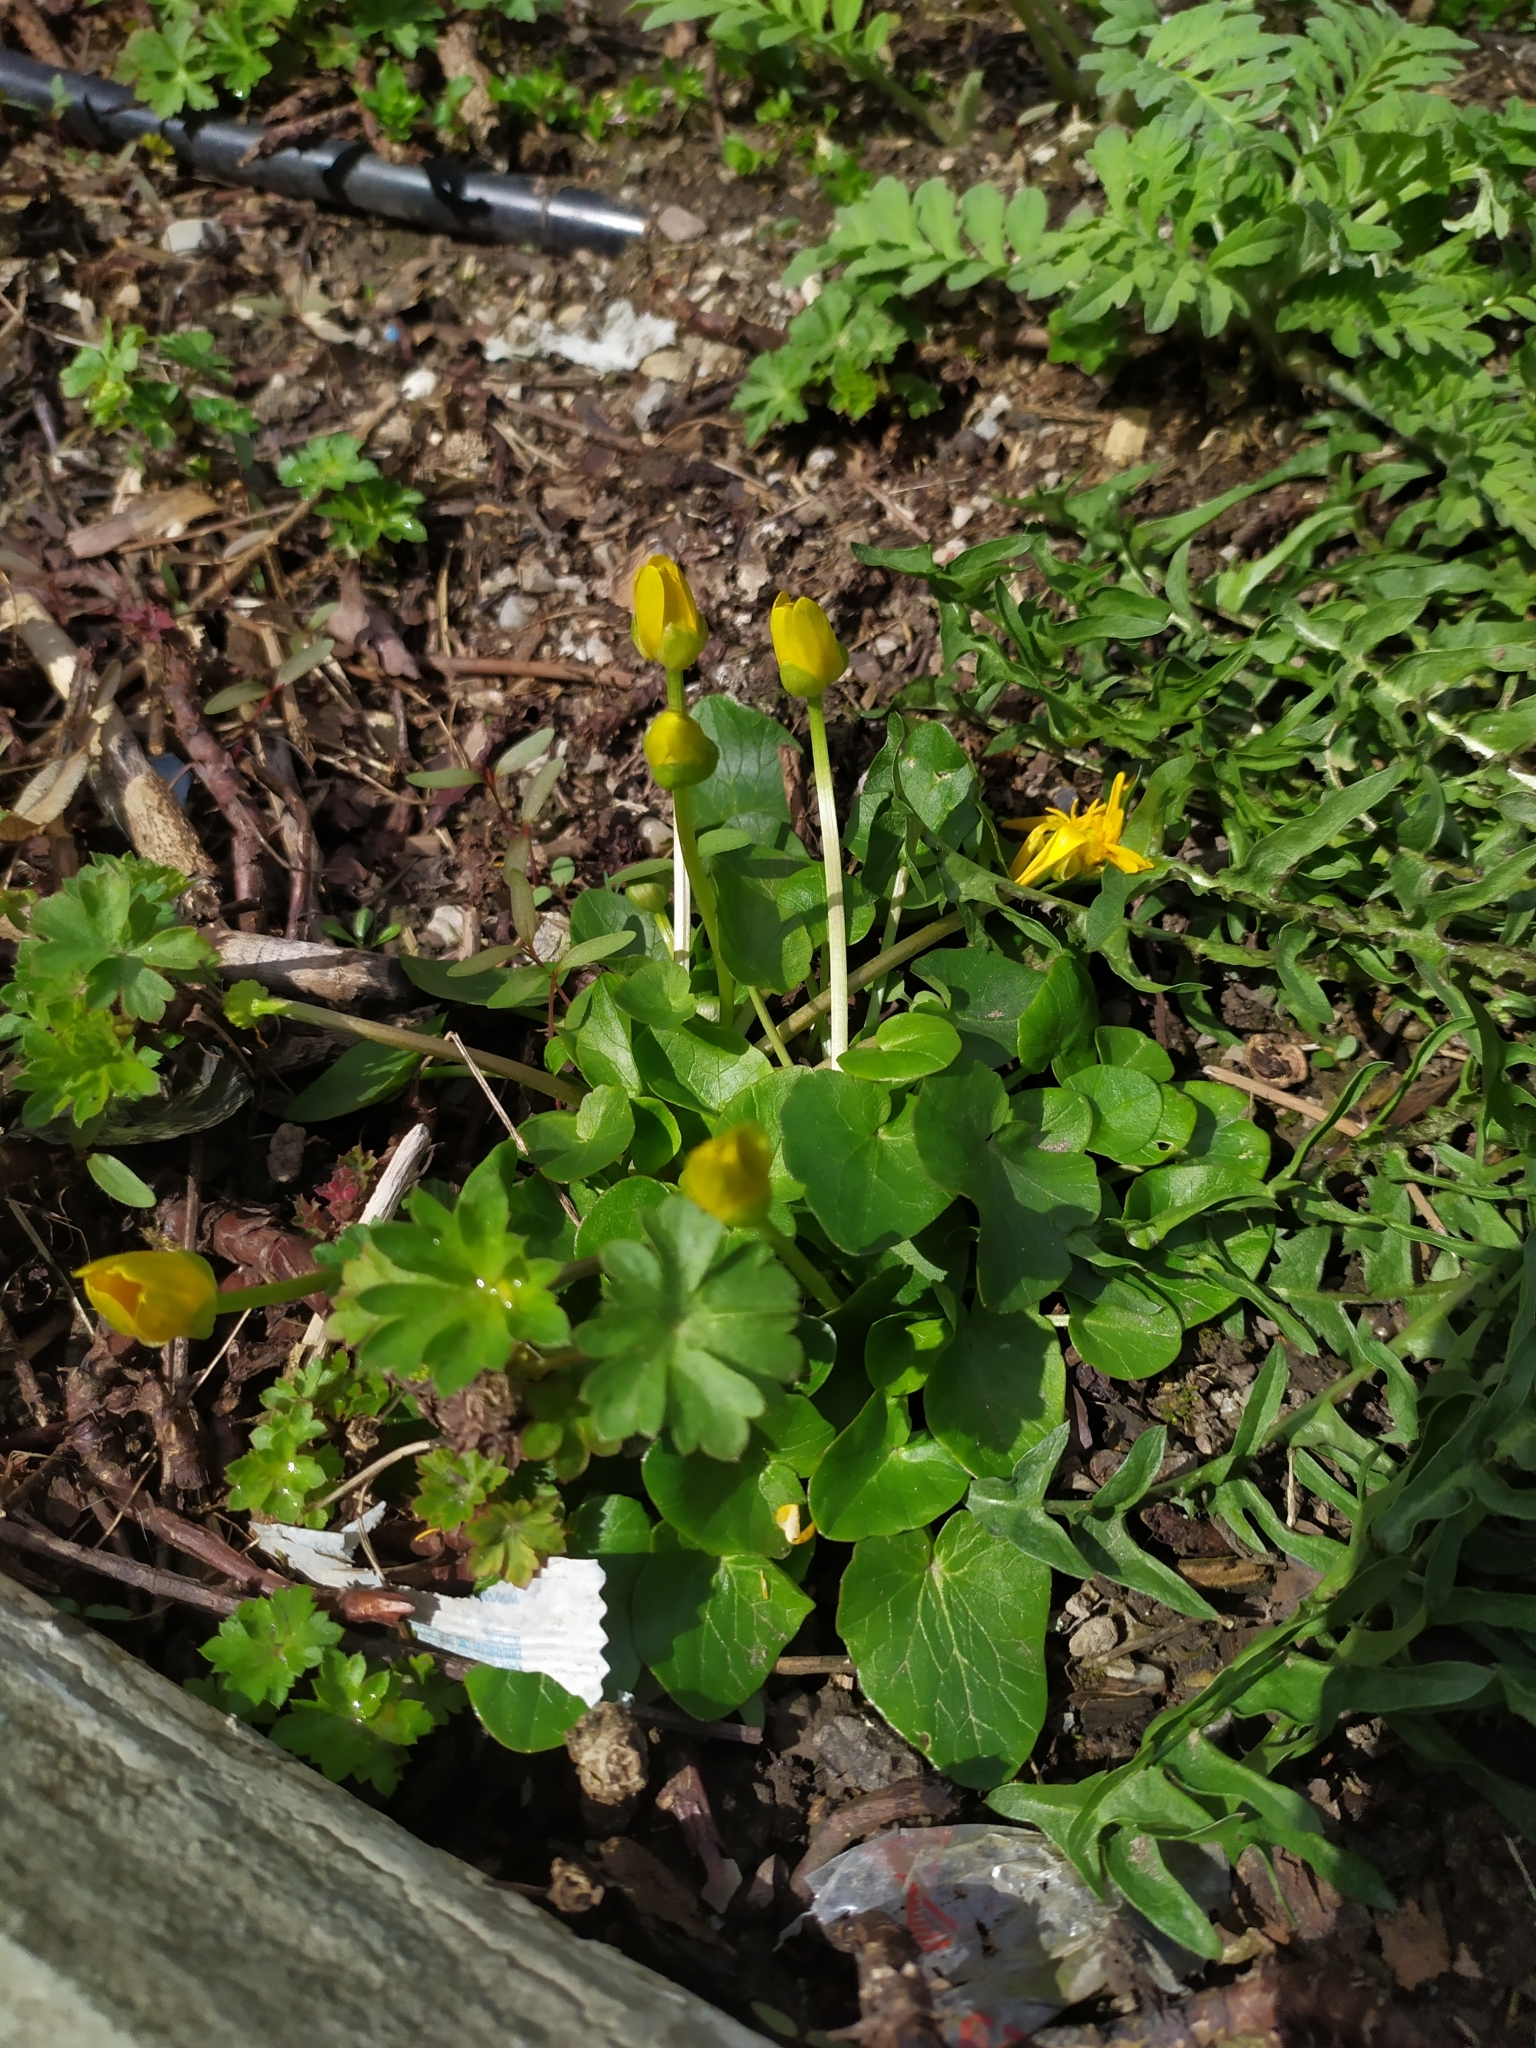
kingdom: Plantae
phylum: Tracheophyta
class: Magnoliopsida
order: Ranunculales
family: Ranunculaceae
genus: Ficaria
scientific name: Ficaria
